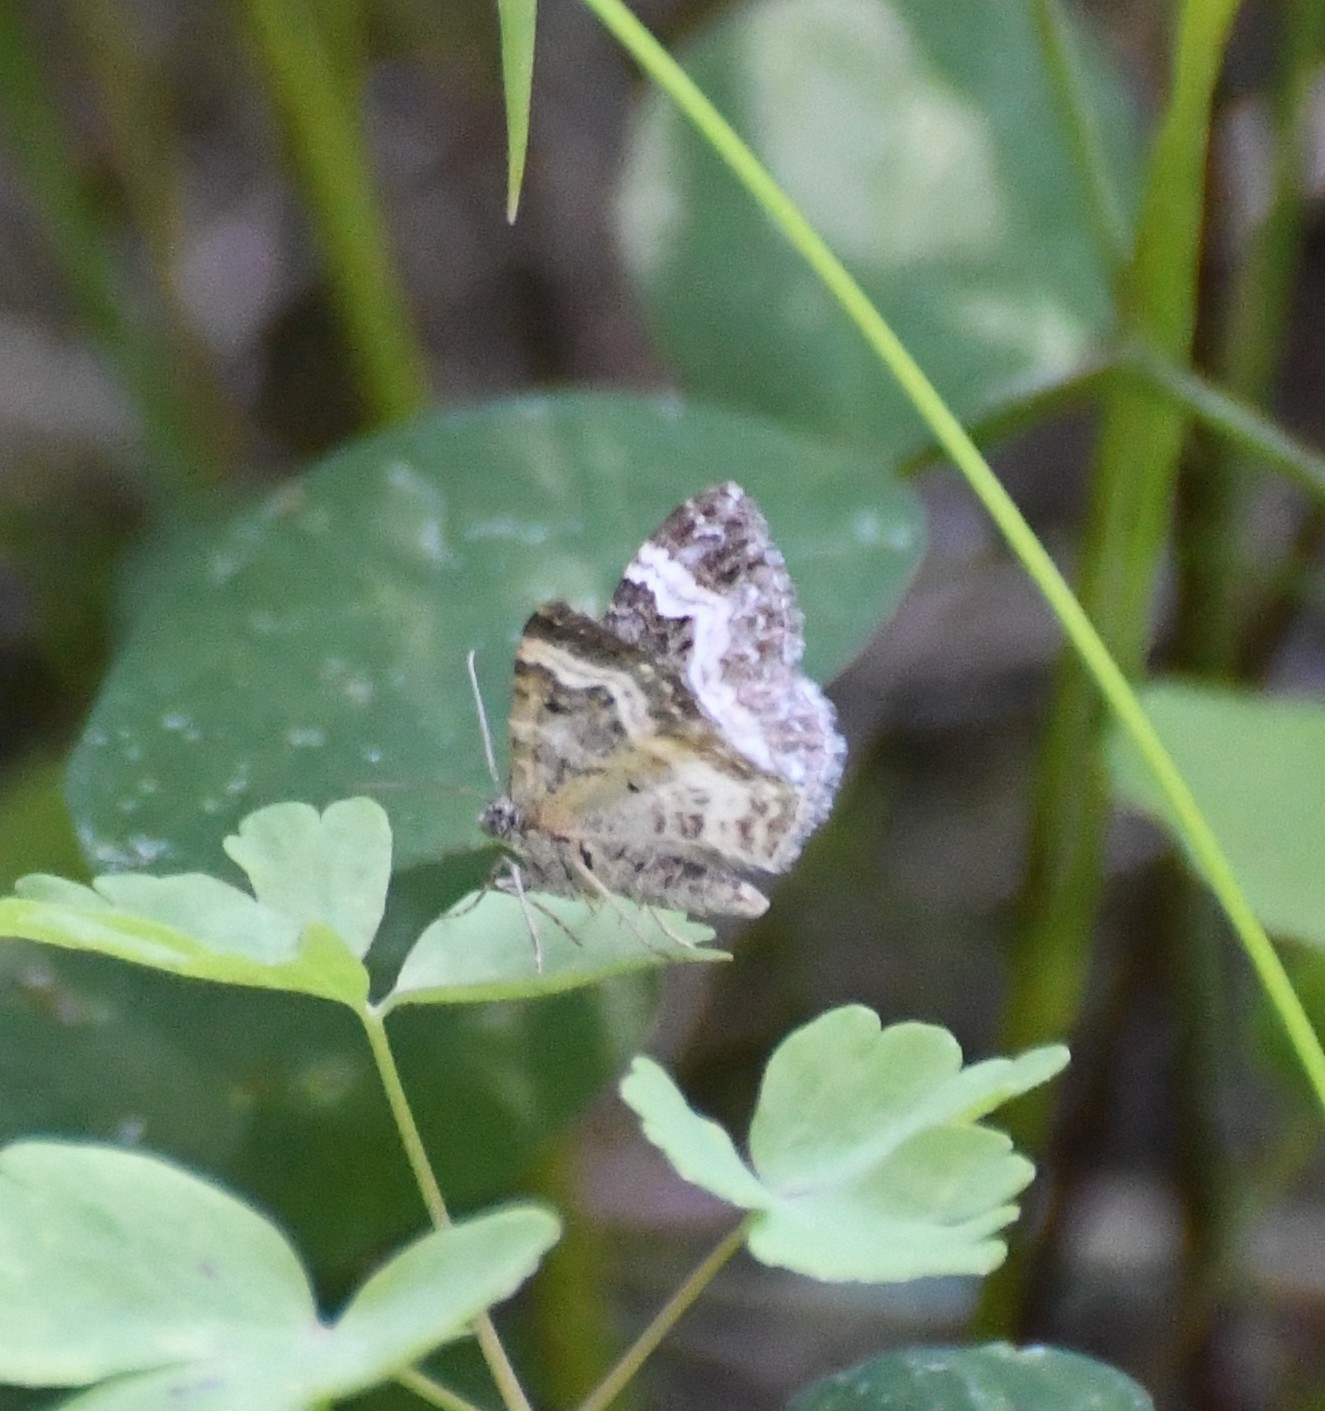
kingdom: Animalia
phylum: Arthropoda
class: Insecta
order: Lepidoptera
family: Geometridae
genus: Epirrhoe
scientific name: Epirrhoe alternata
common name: Common carpet
